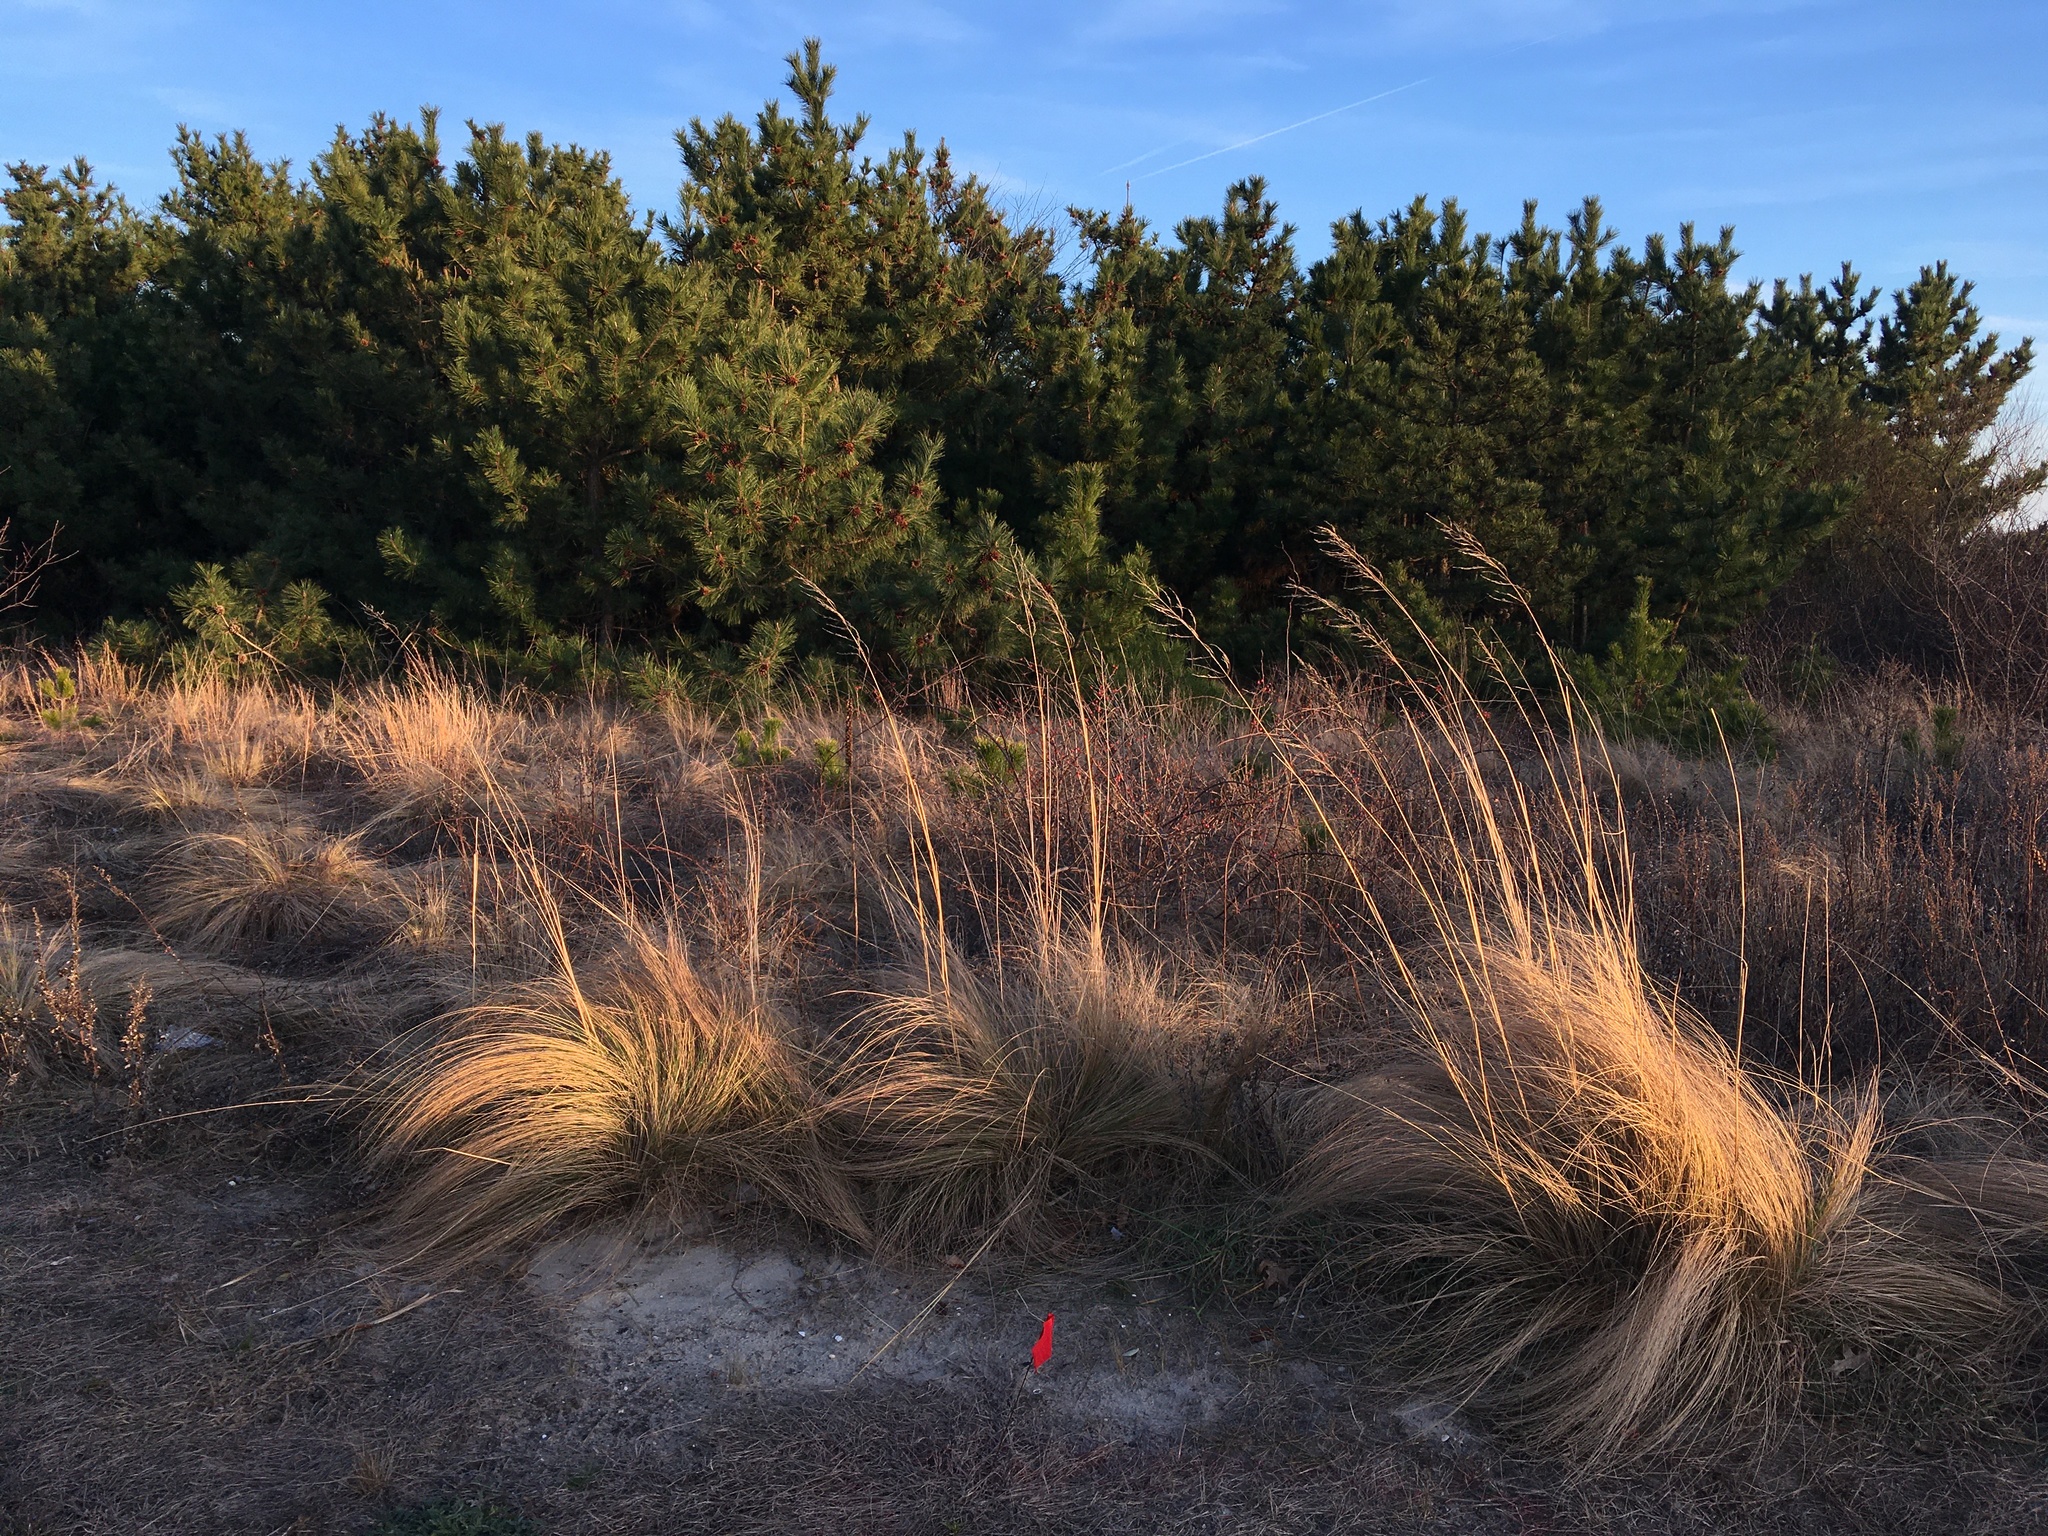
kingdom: Plantae
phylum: Tracheophyta
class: Liliopsida
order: Poales
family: Poaceae
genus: Eragrostis
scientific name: Eragrostis curvula
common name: African love-grass
